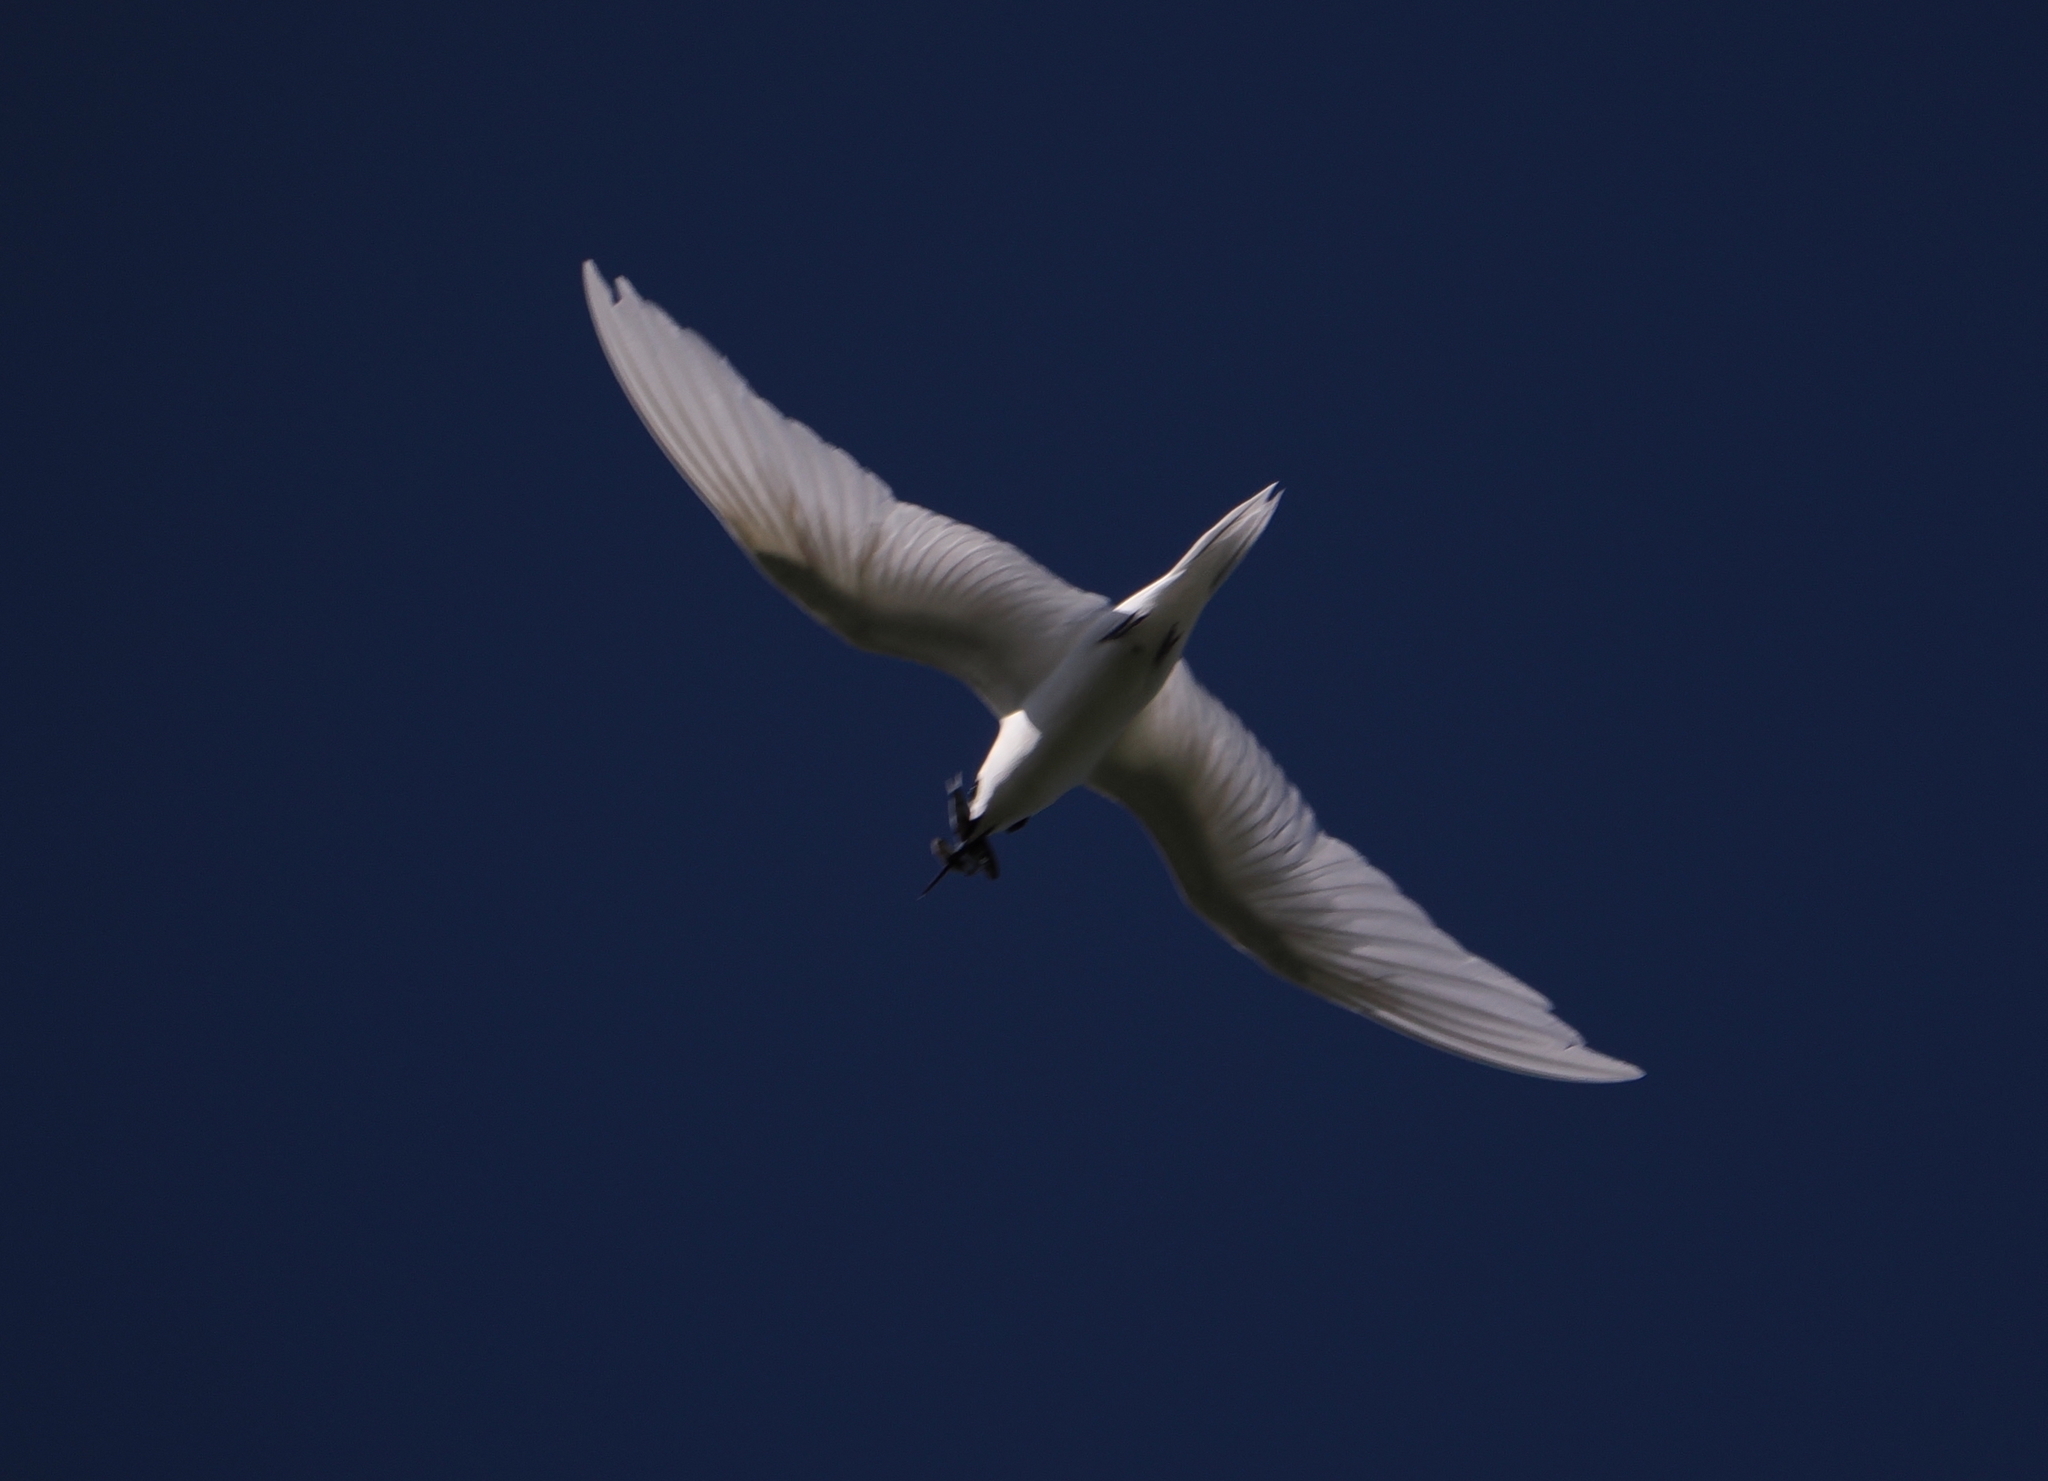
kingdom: Animalia
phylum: Chordata
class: Aves
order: Charadriiformes
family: Laridae
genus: Gygis
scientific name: Gygis alba
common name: White tern
